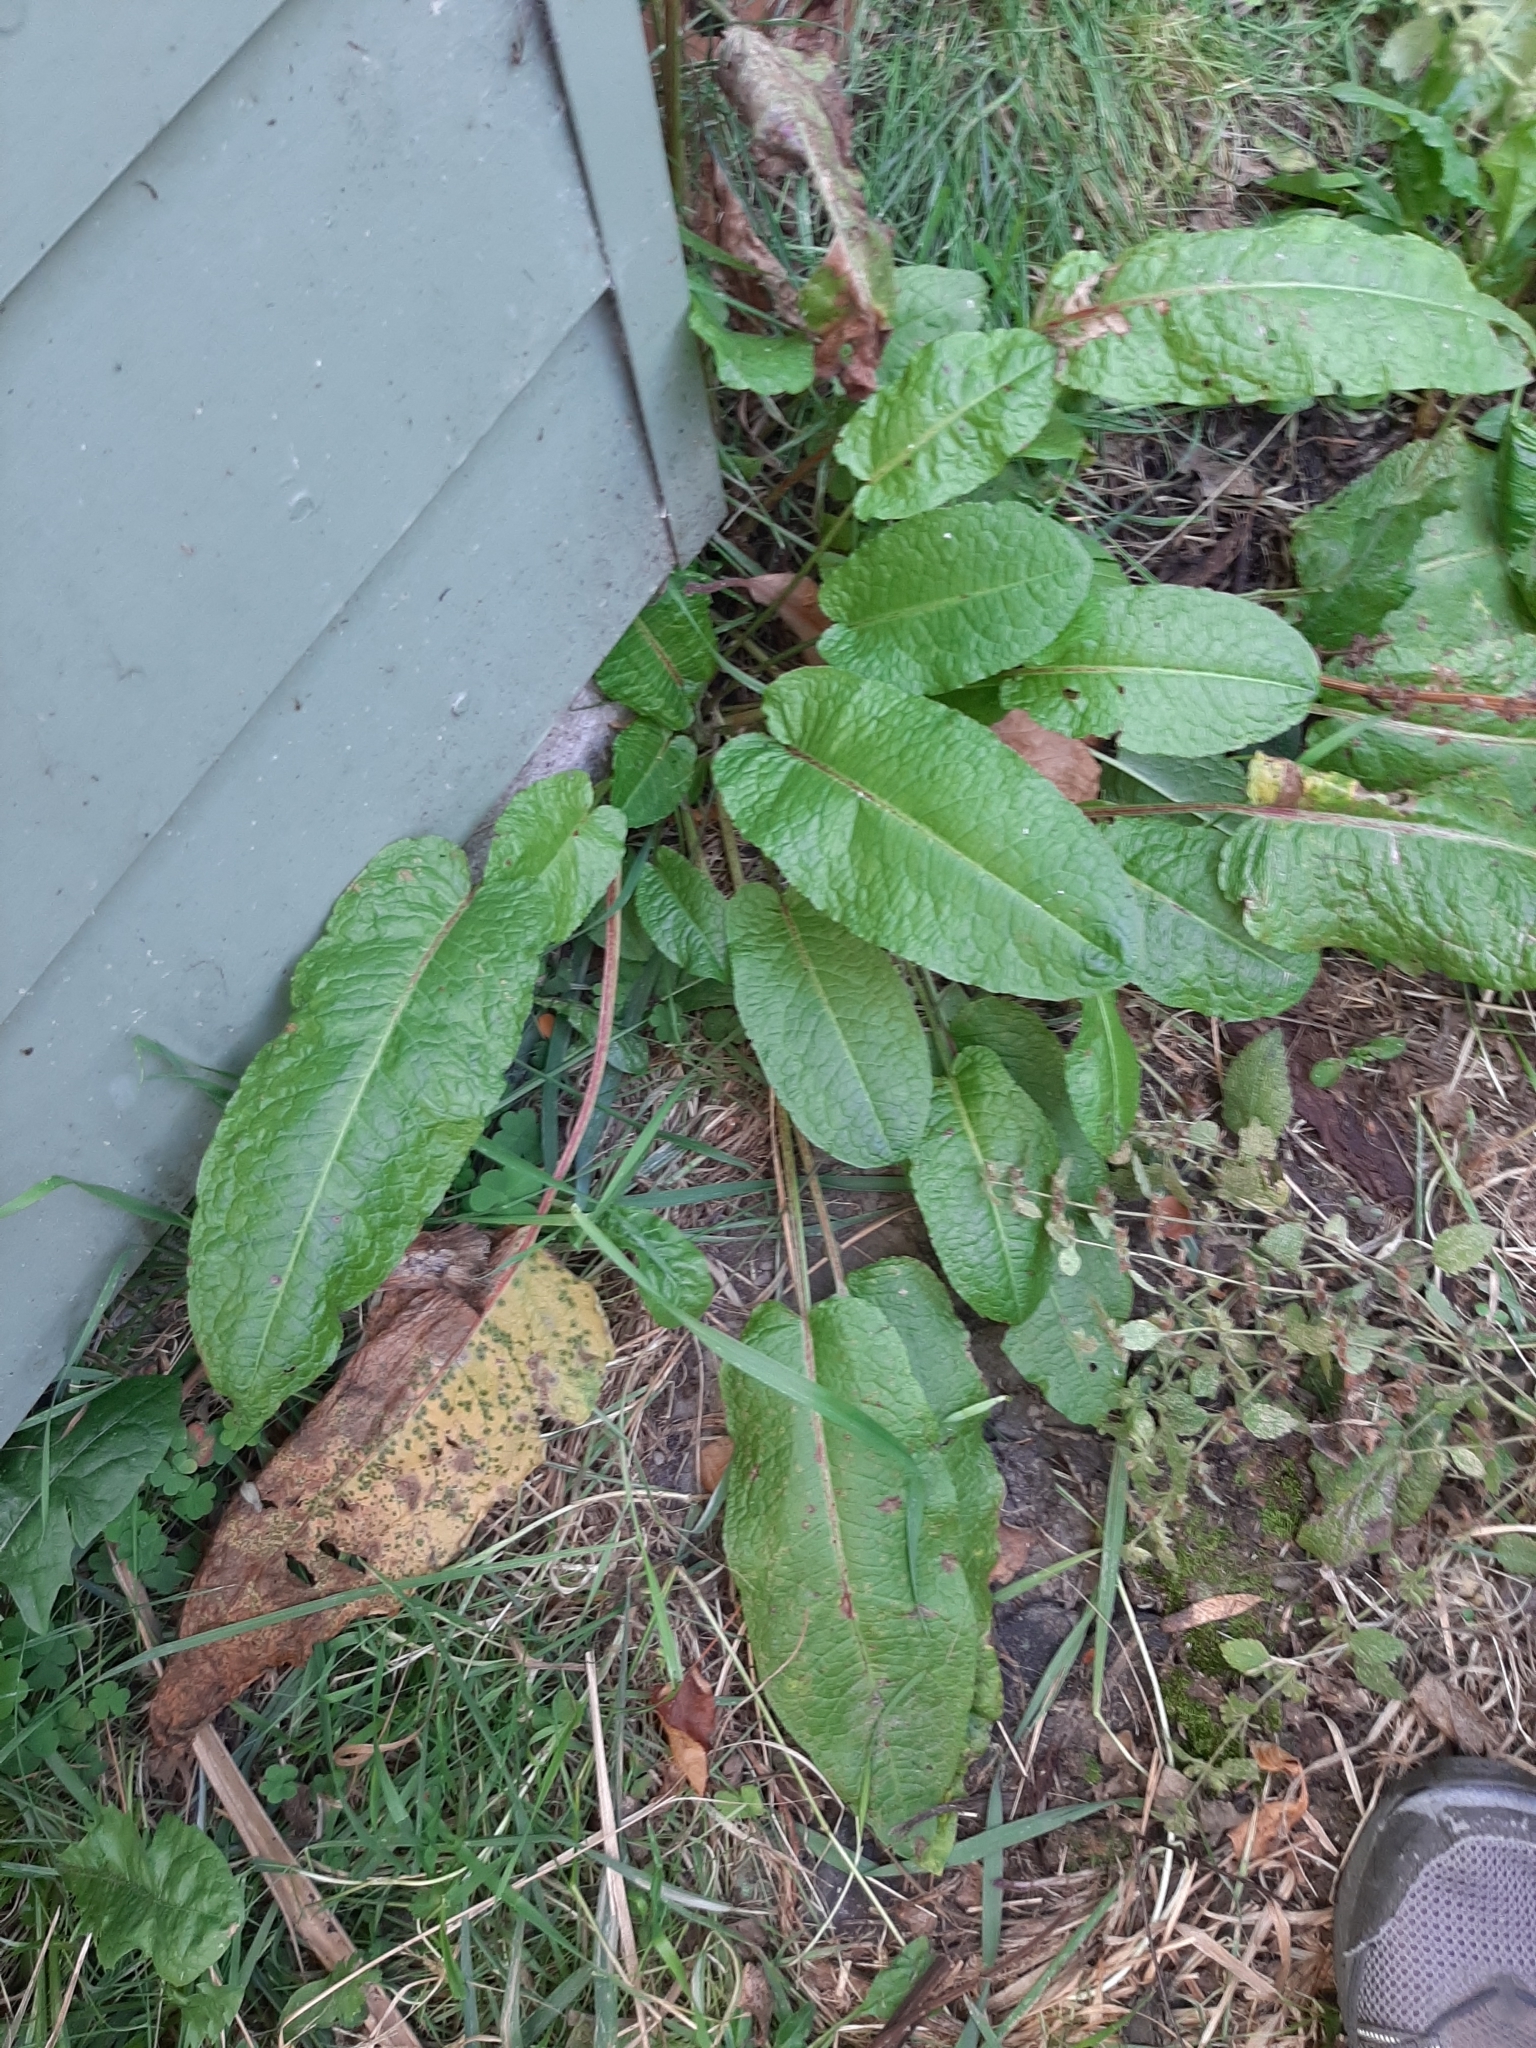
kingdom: Plantae
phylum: Tracheophyta
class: Magnoliopsida
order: Caryophyllales
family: Polygonaceae
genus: Rumex
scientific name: Rumex obtusifolius
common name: Bitter dock
